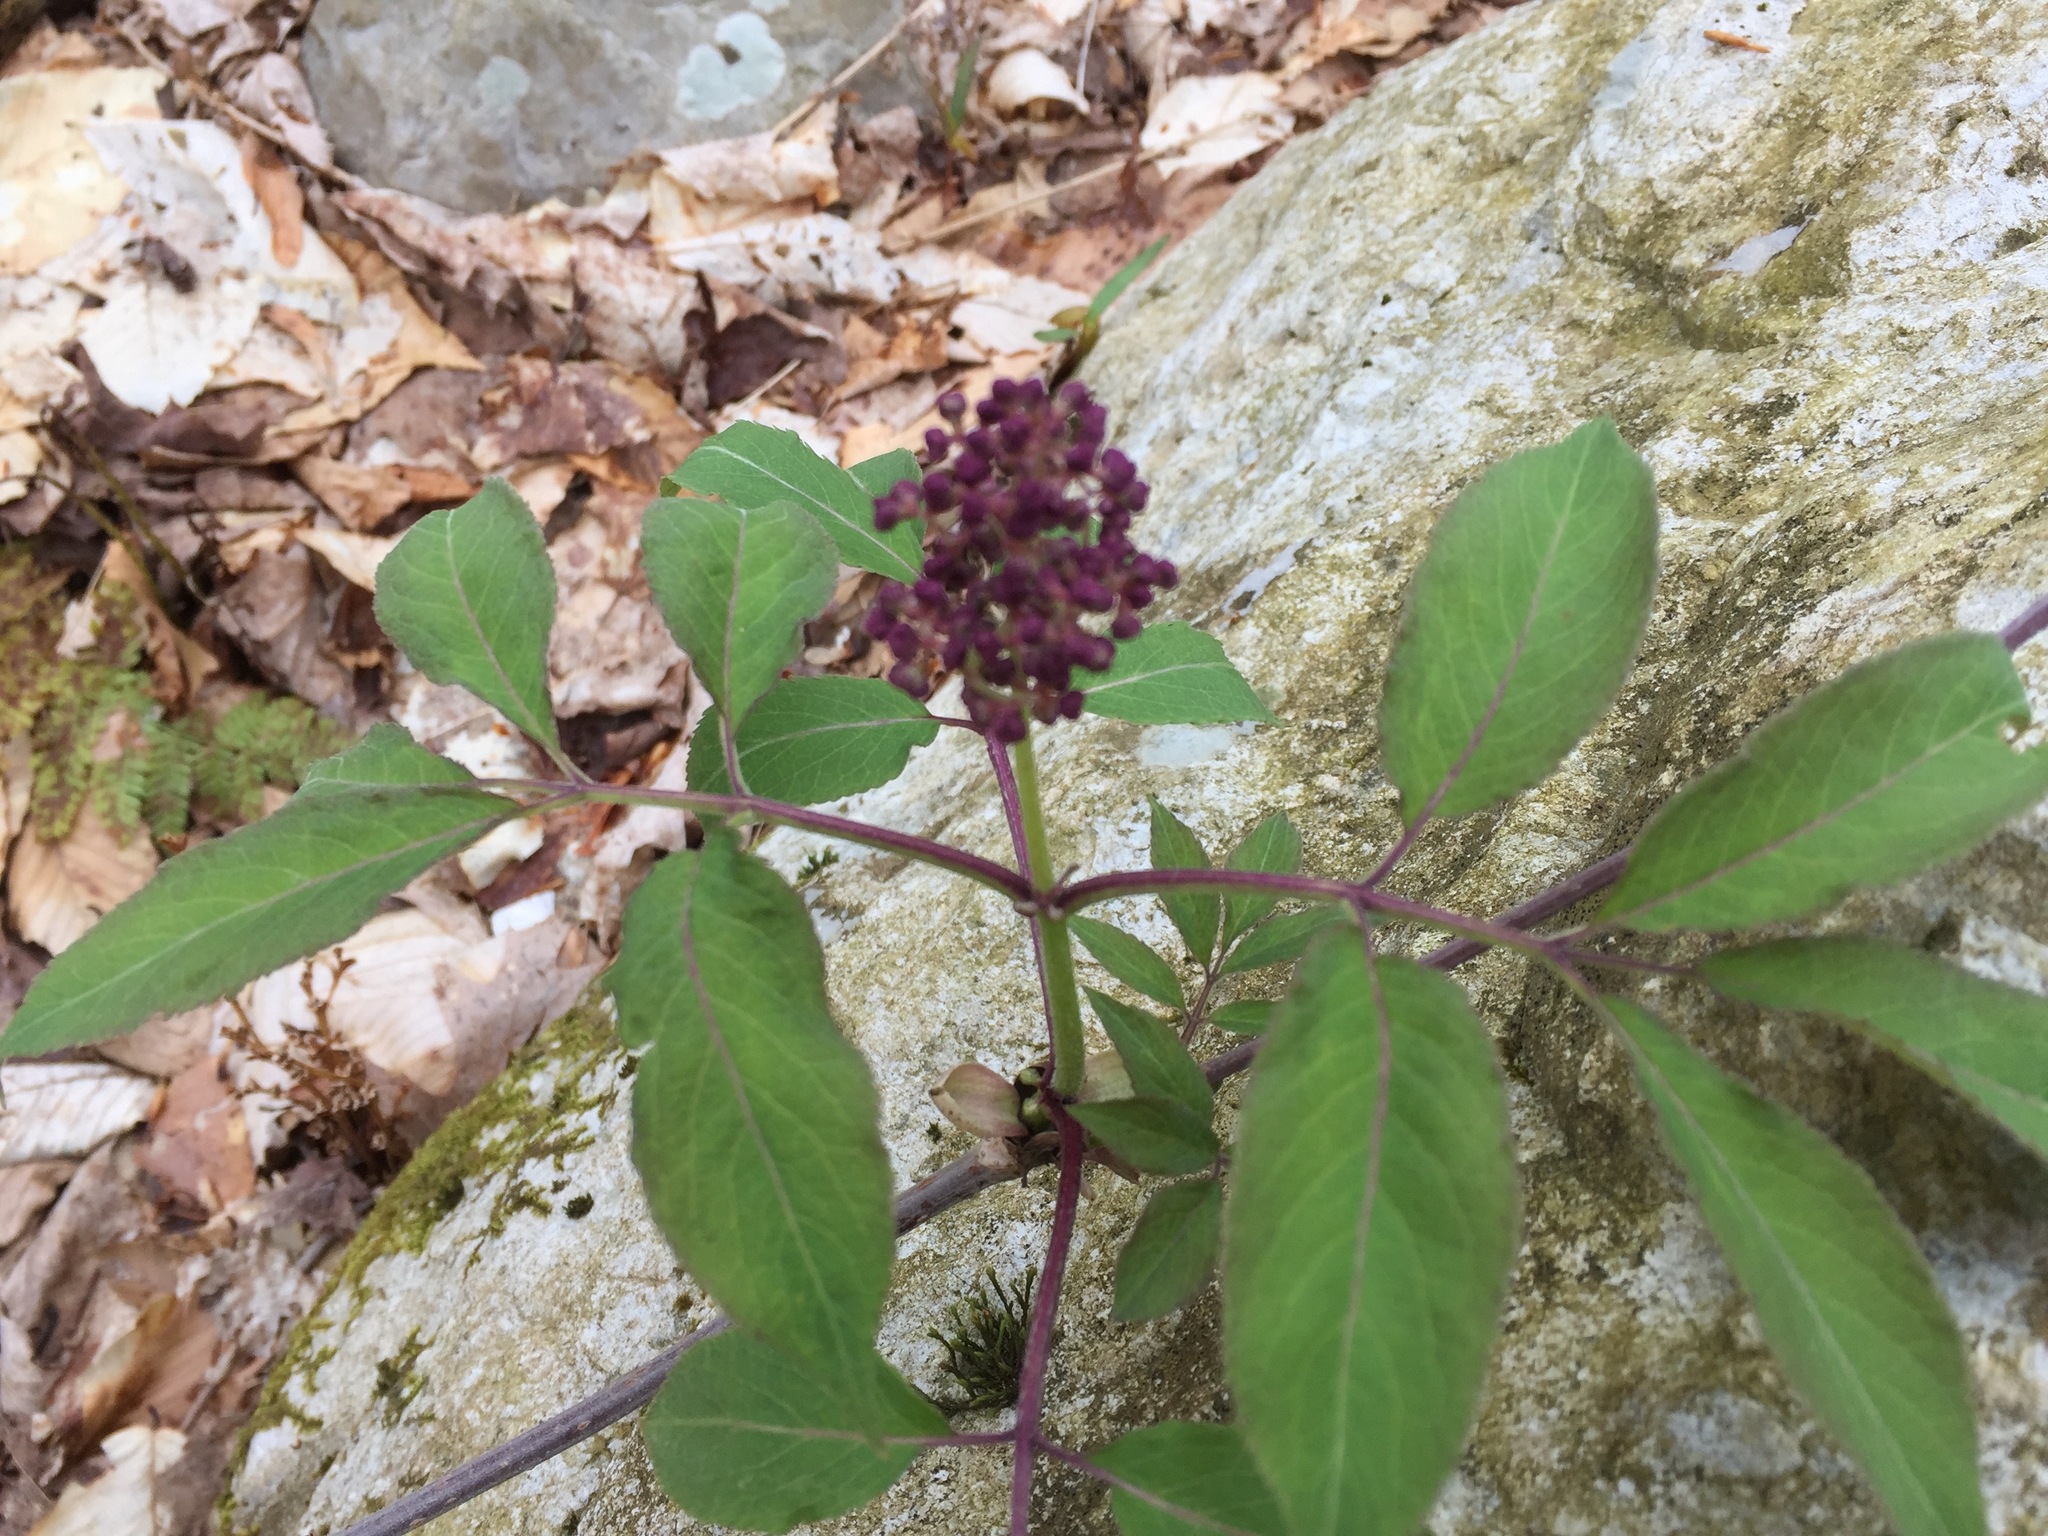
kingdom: Plantae
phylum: Tracheophyta
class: Magnoliopsida
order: Dipsacales
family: Viburnaceae
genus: Sambucus
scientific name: Sambucus racemosa
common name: Red-berried elder
